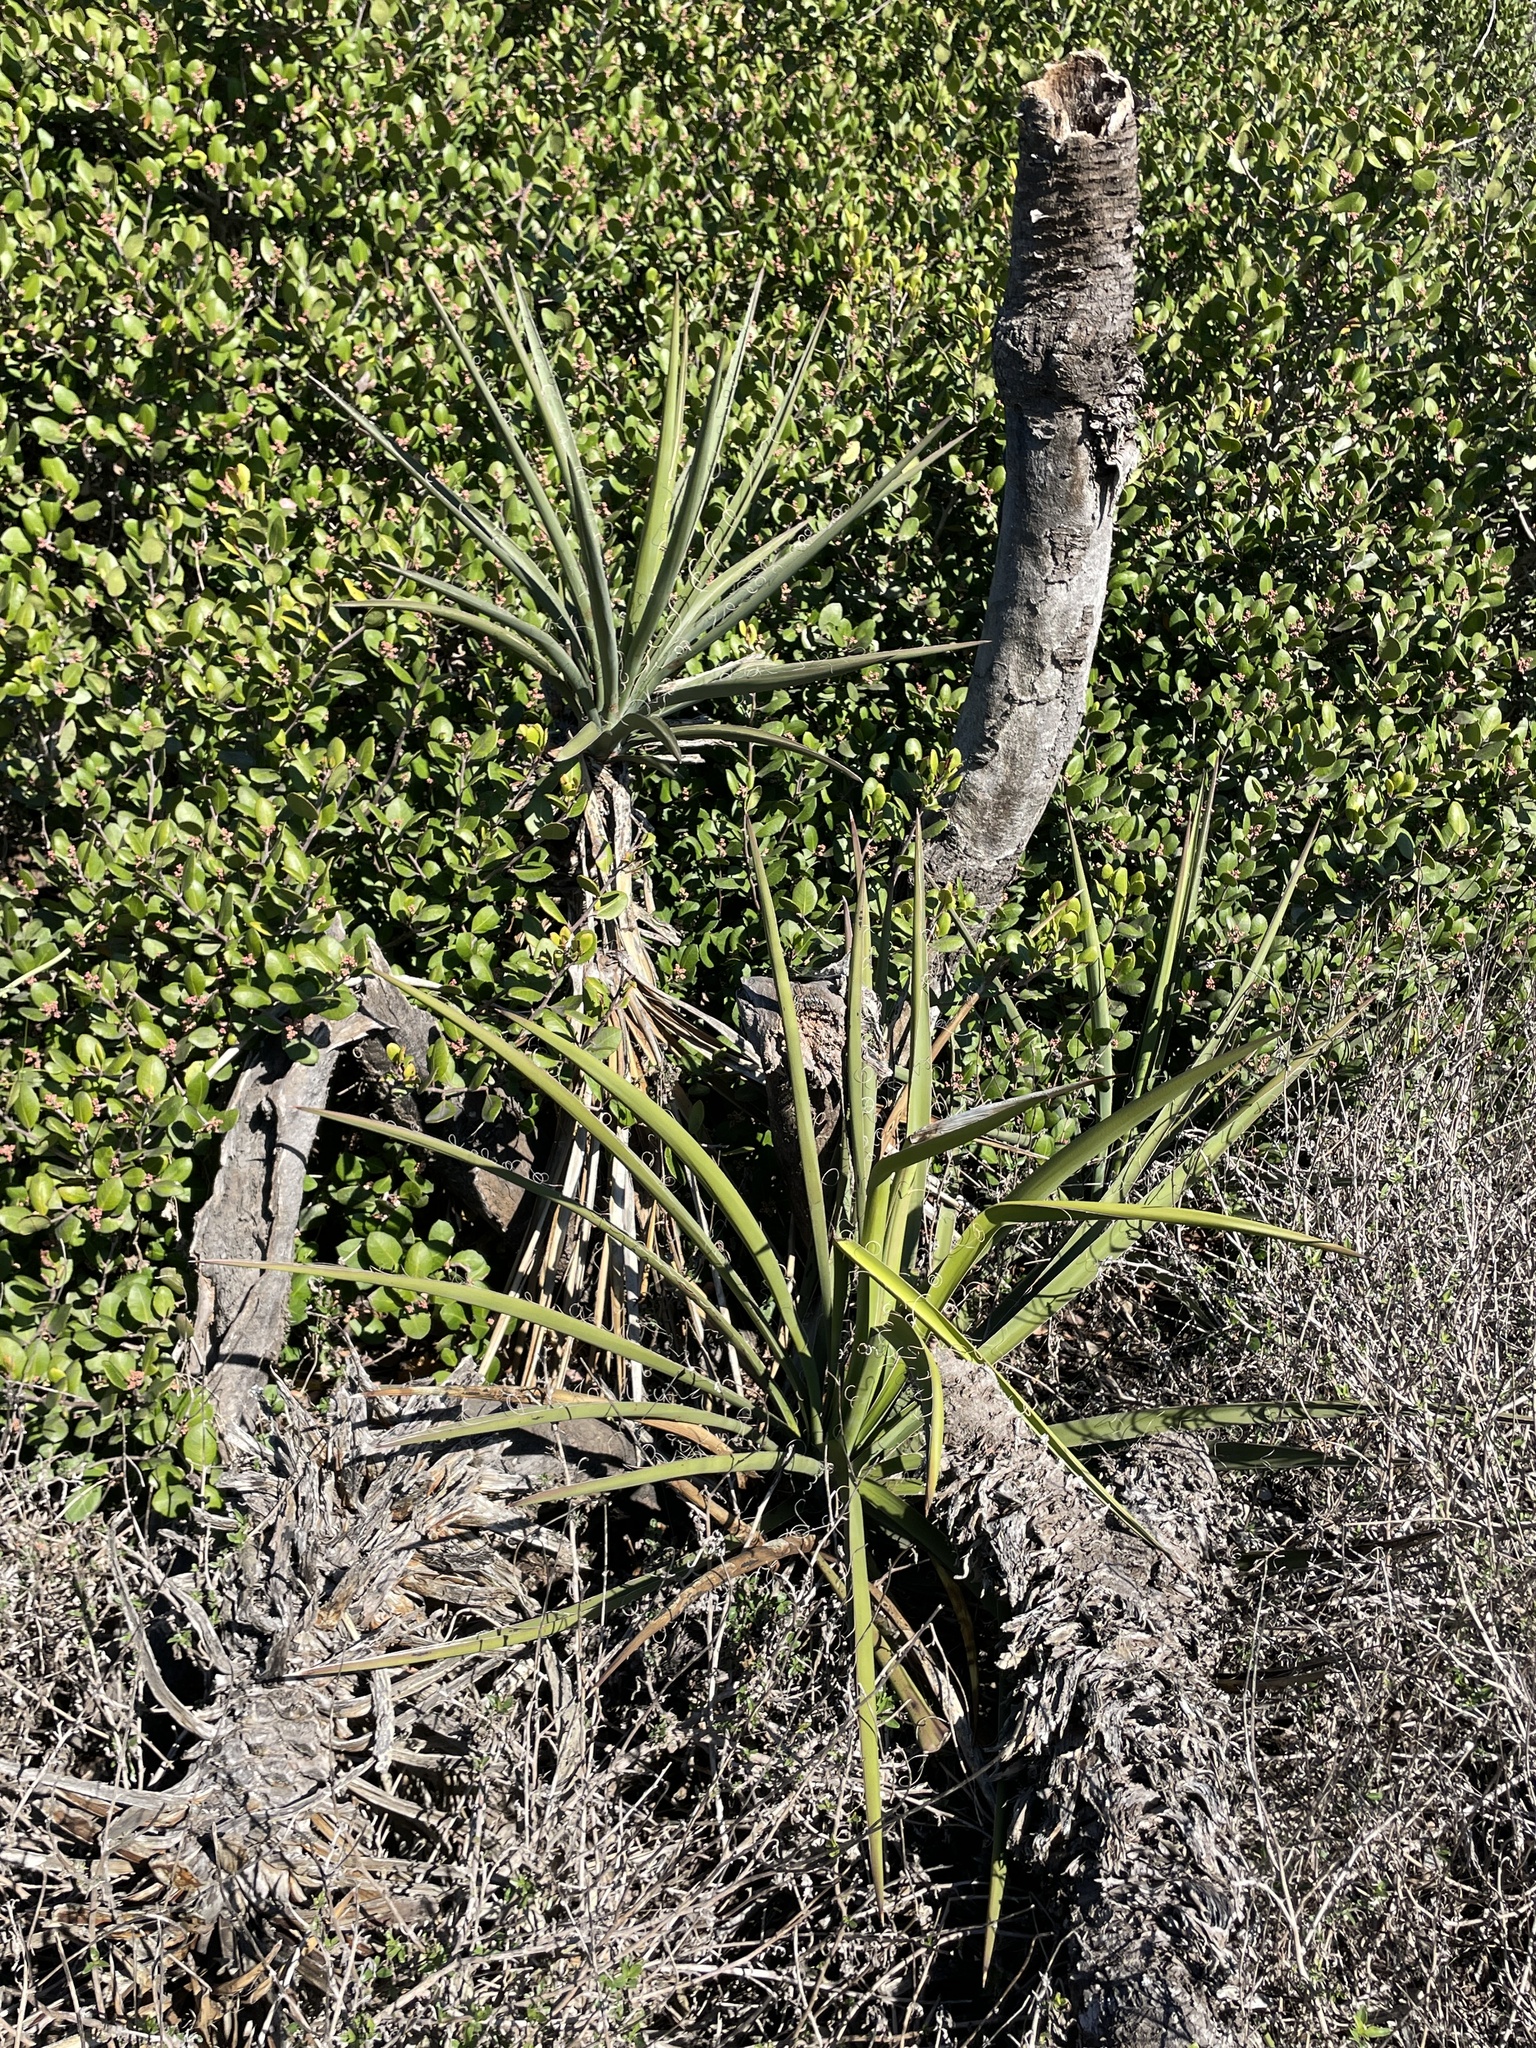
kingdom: Plantae
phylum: Tracheophyta
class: Liliopsida
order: Asparagales
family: Asparagaceae
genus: Yucca
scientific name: Yucca schidigera
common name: Mojave yucca
